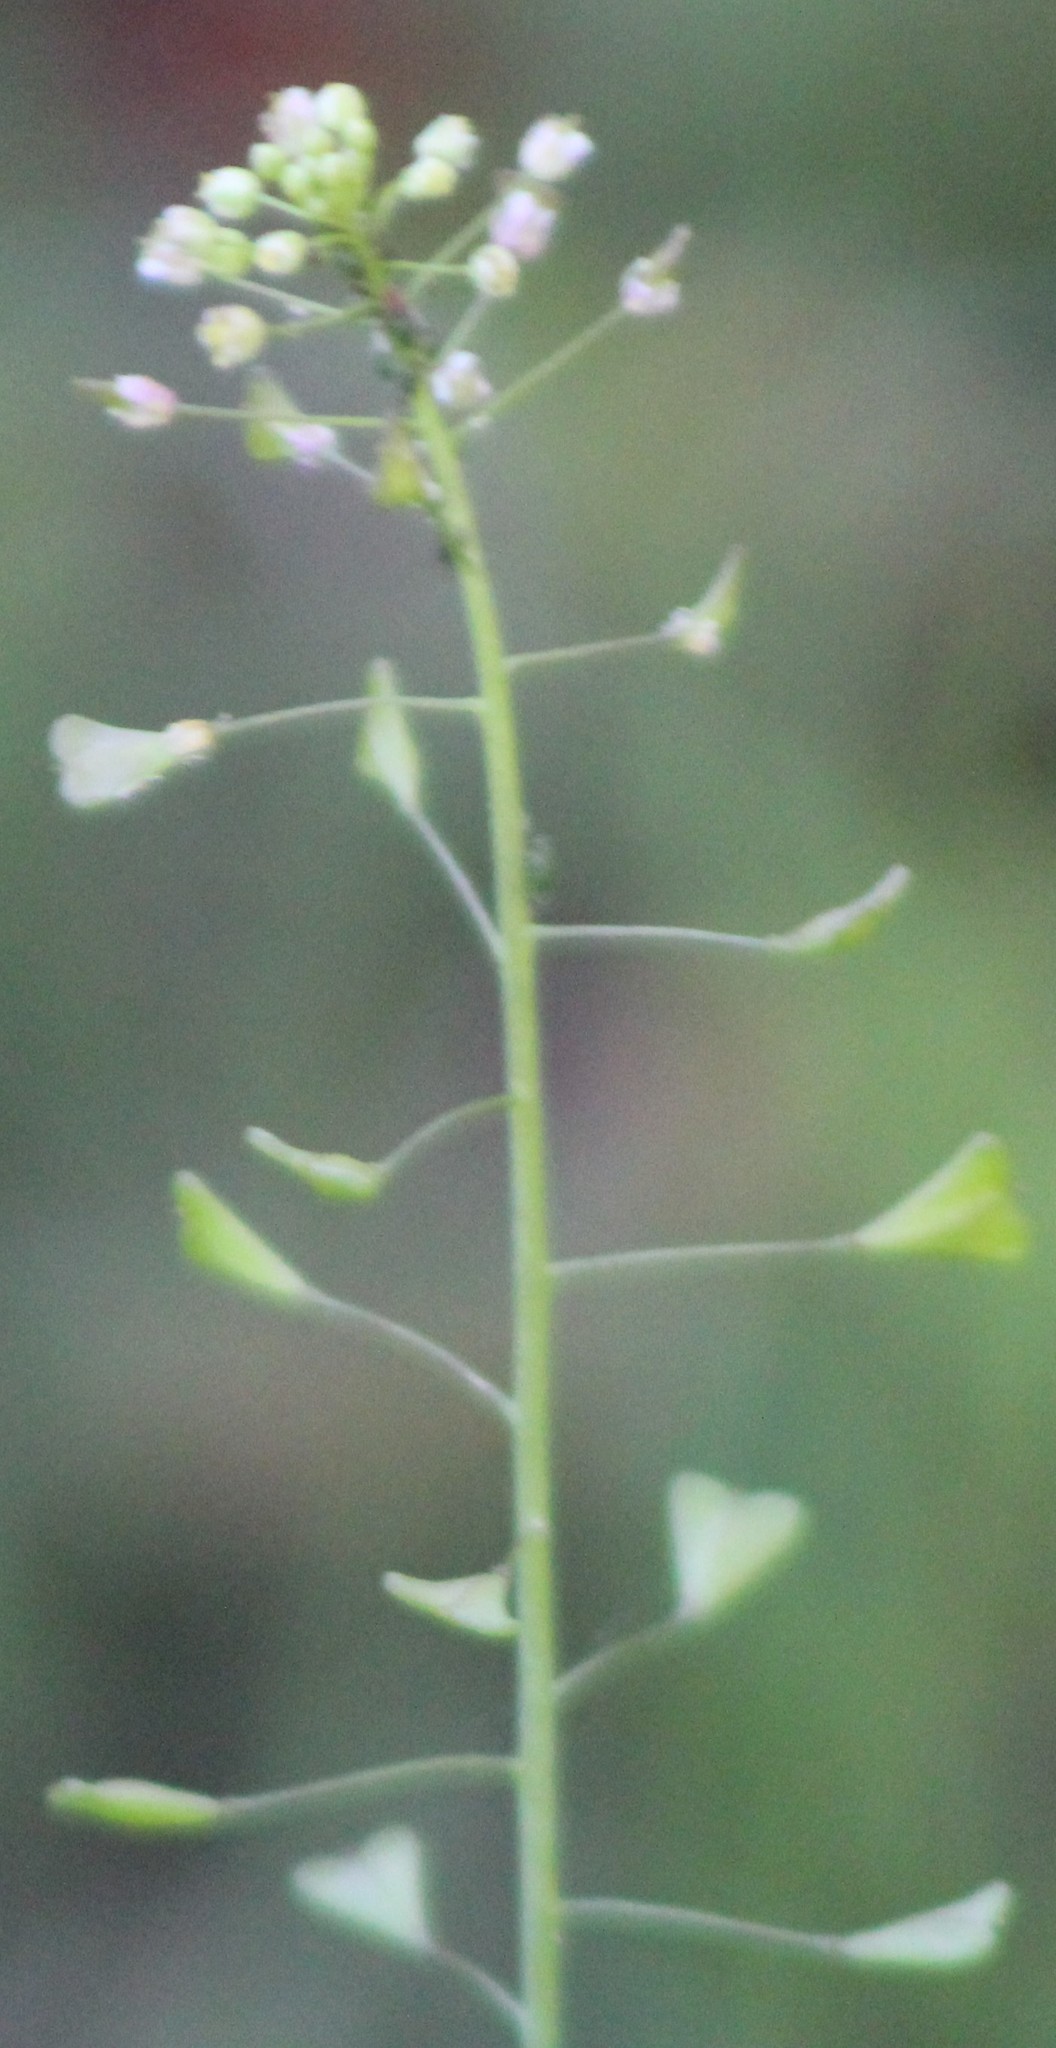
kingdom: Plantae
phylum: Tracheophyta
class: Magnoliopsida
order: Brassicales
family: Brassicaceae
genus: Capsella
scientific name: Capsella bursa-pastoris
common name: Shepherd's purse
